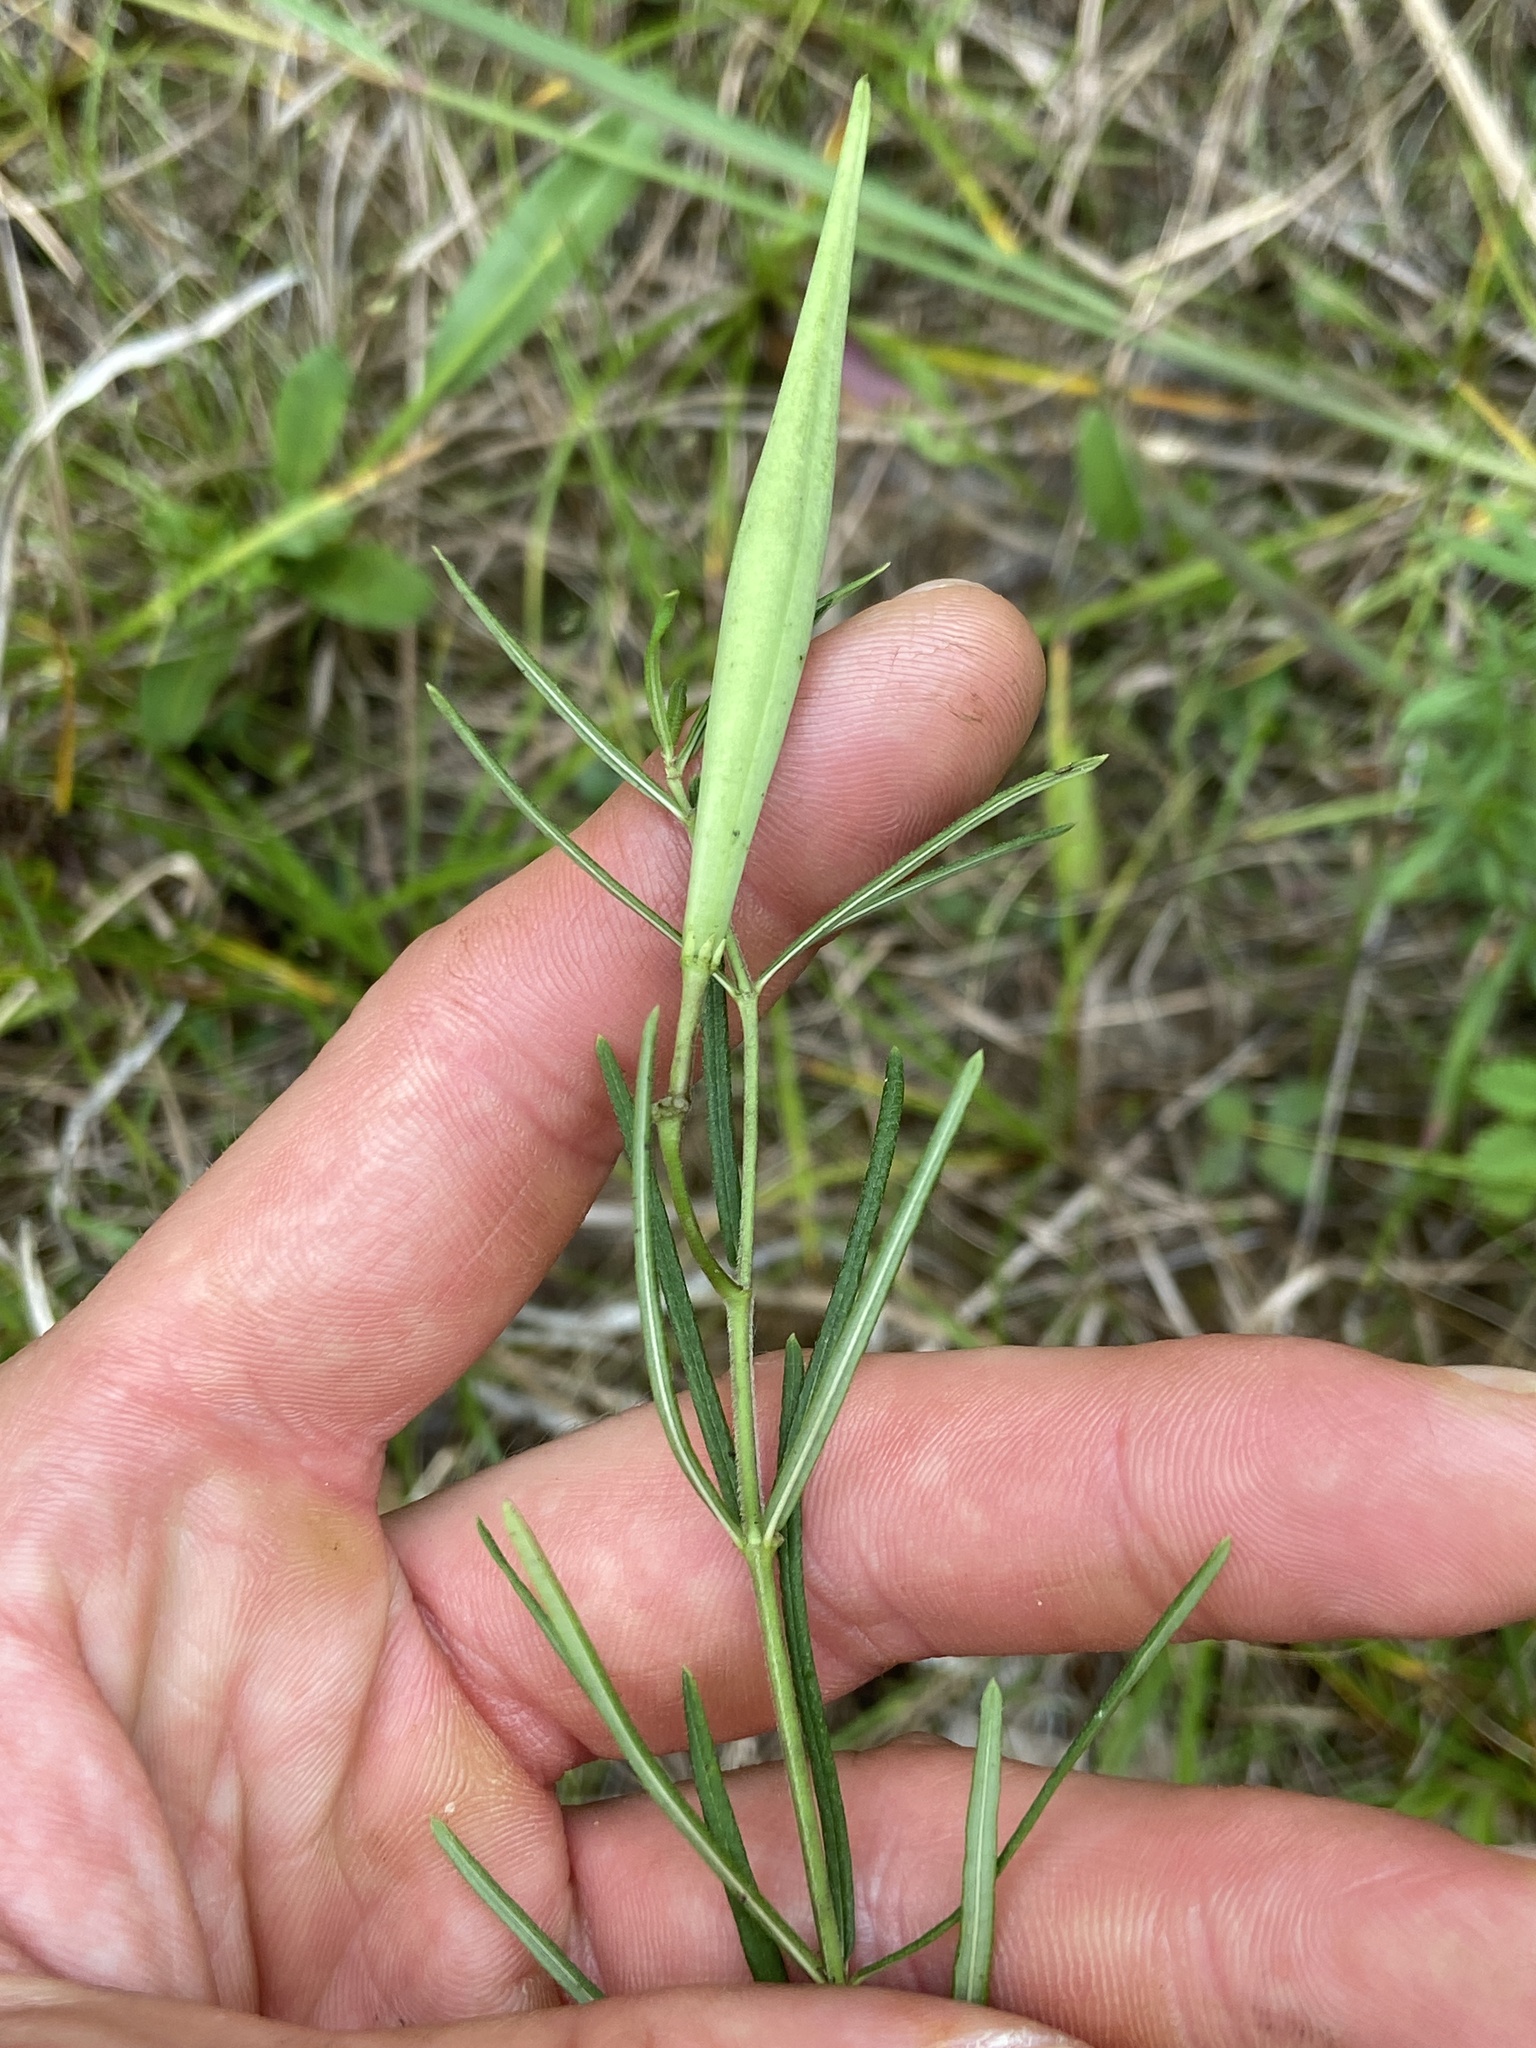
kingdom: Plantae
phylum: Tracheophyta
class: Magnoliopsida
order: Gentianales
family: Apocynaceae
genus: Asclepias
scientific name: Asclepias verticillata
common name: Eastern whorled milkweed
